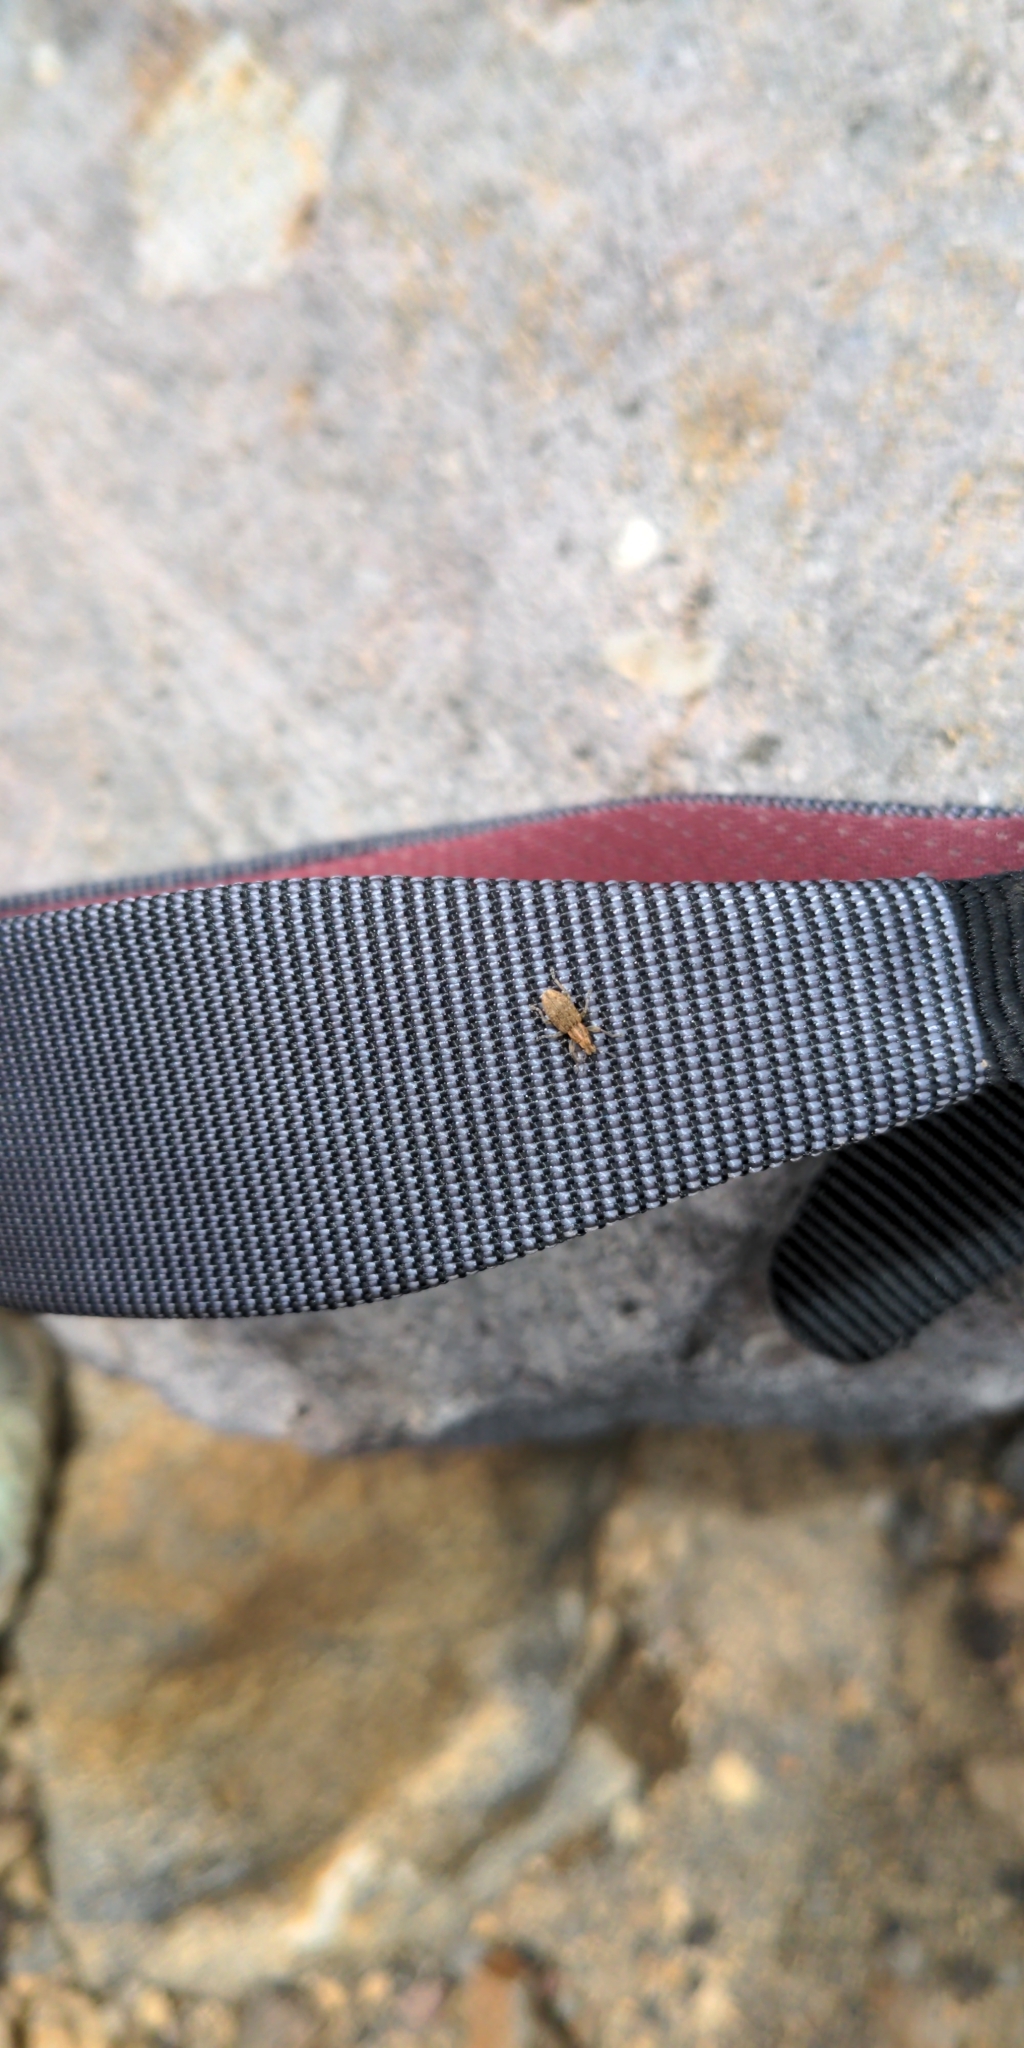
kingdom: Animalia
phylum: Arthropoda
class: Insecta
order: Coleoptera
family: Curculionidae
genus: Sitona
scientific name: Sitona obsoletus
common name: Weevil
